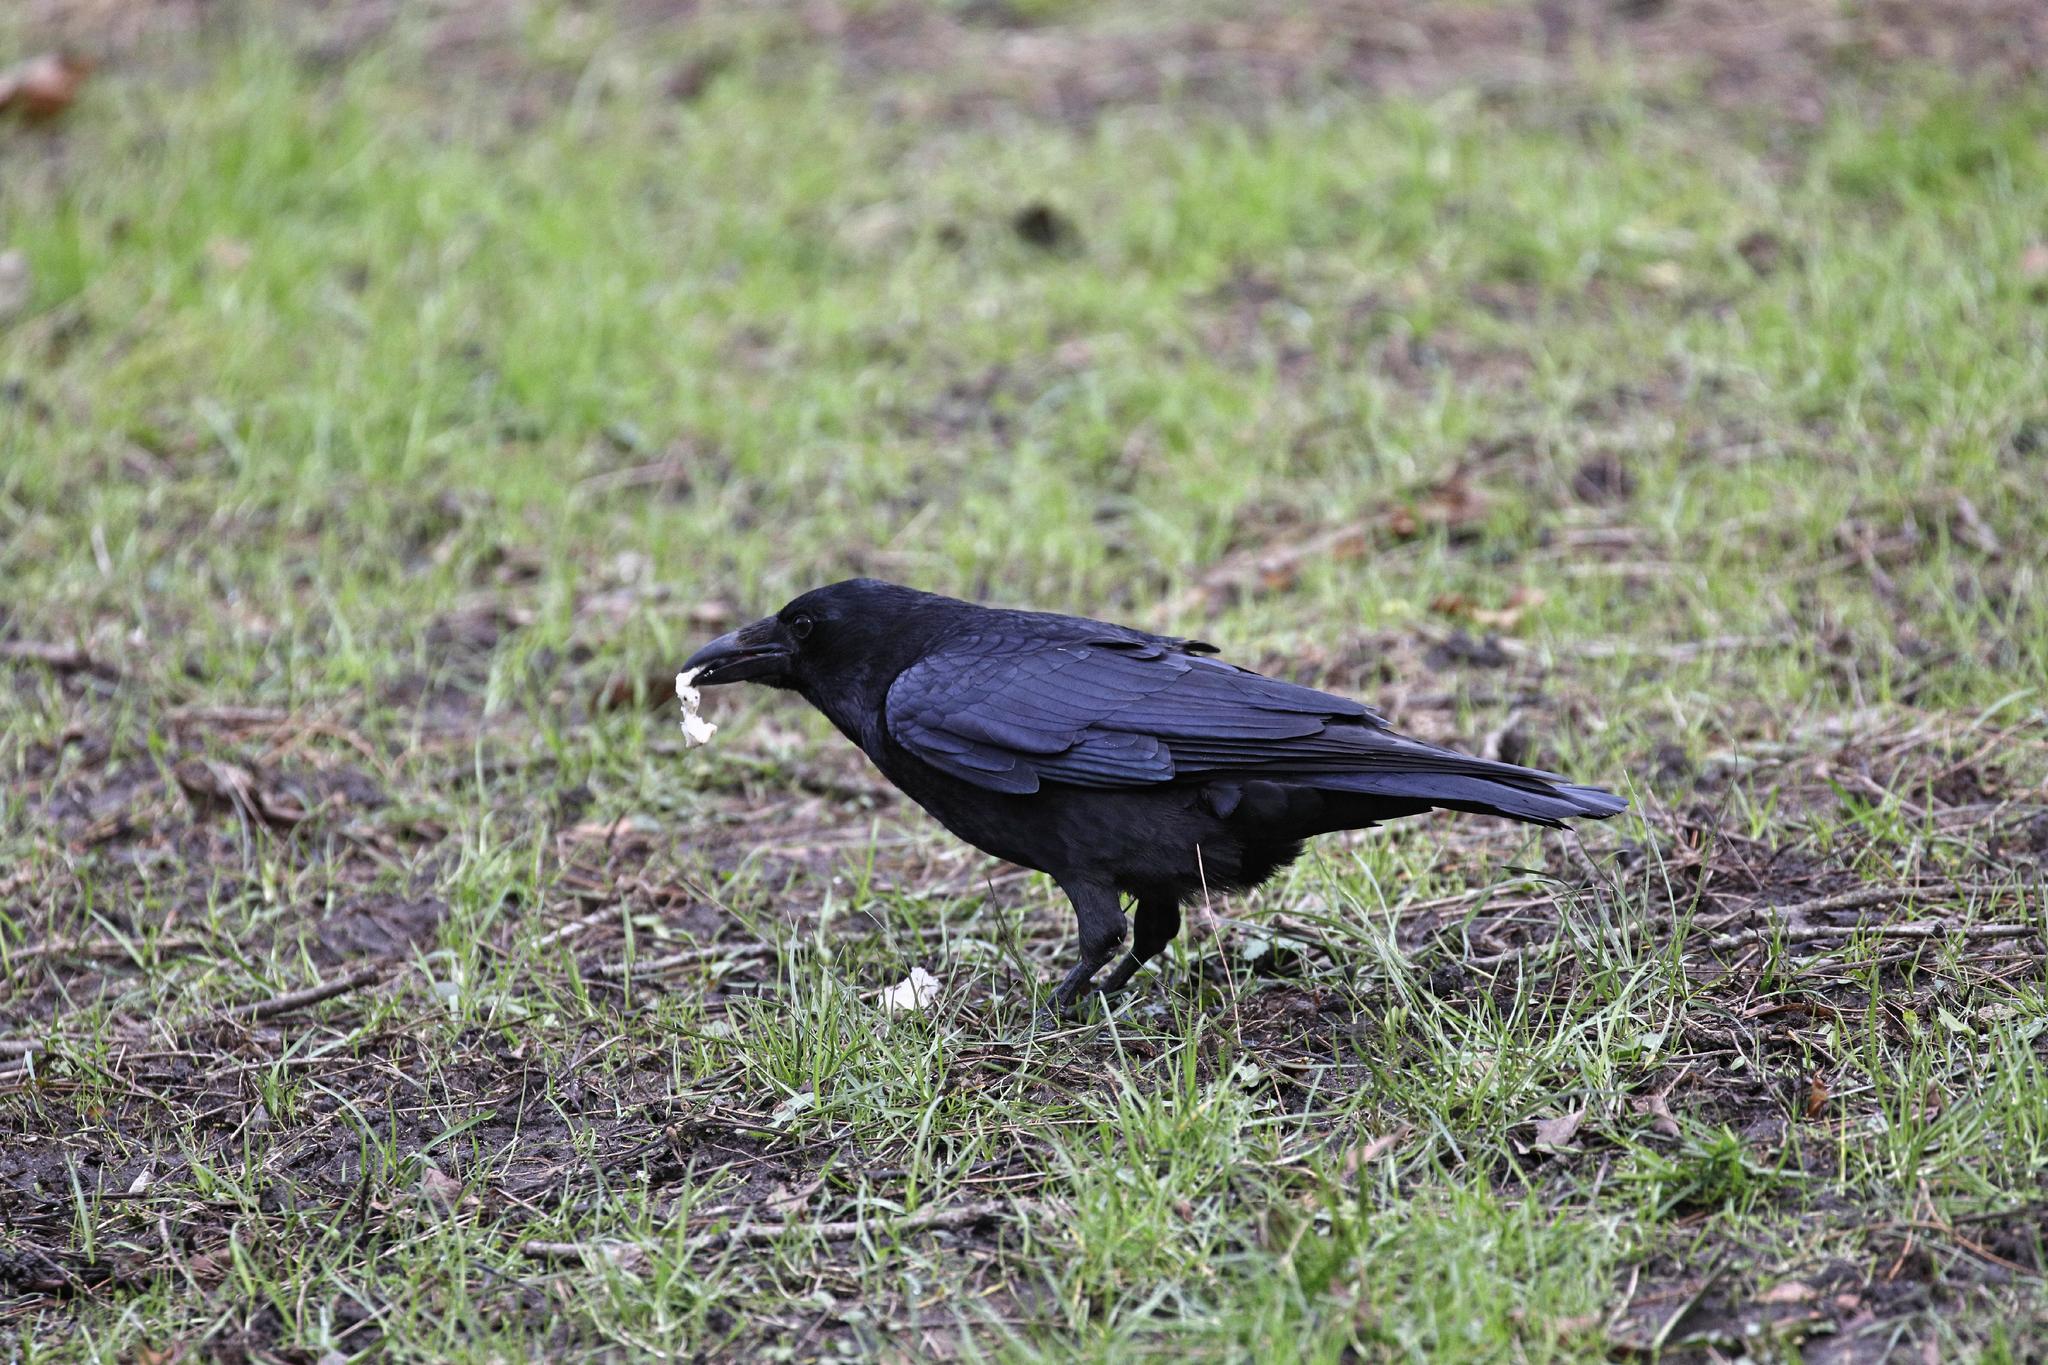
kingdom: Animalia
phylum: Chordata
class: Aves
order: Passeriformes
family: Corvidae
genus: Corvus
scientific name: Corvus corone
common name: Carrion crow
